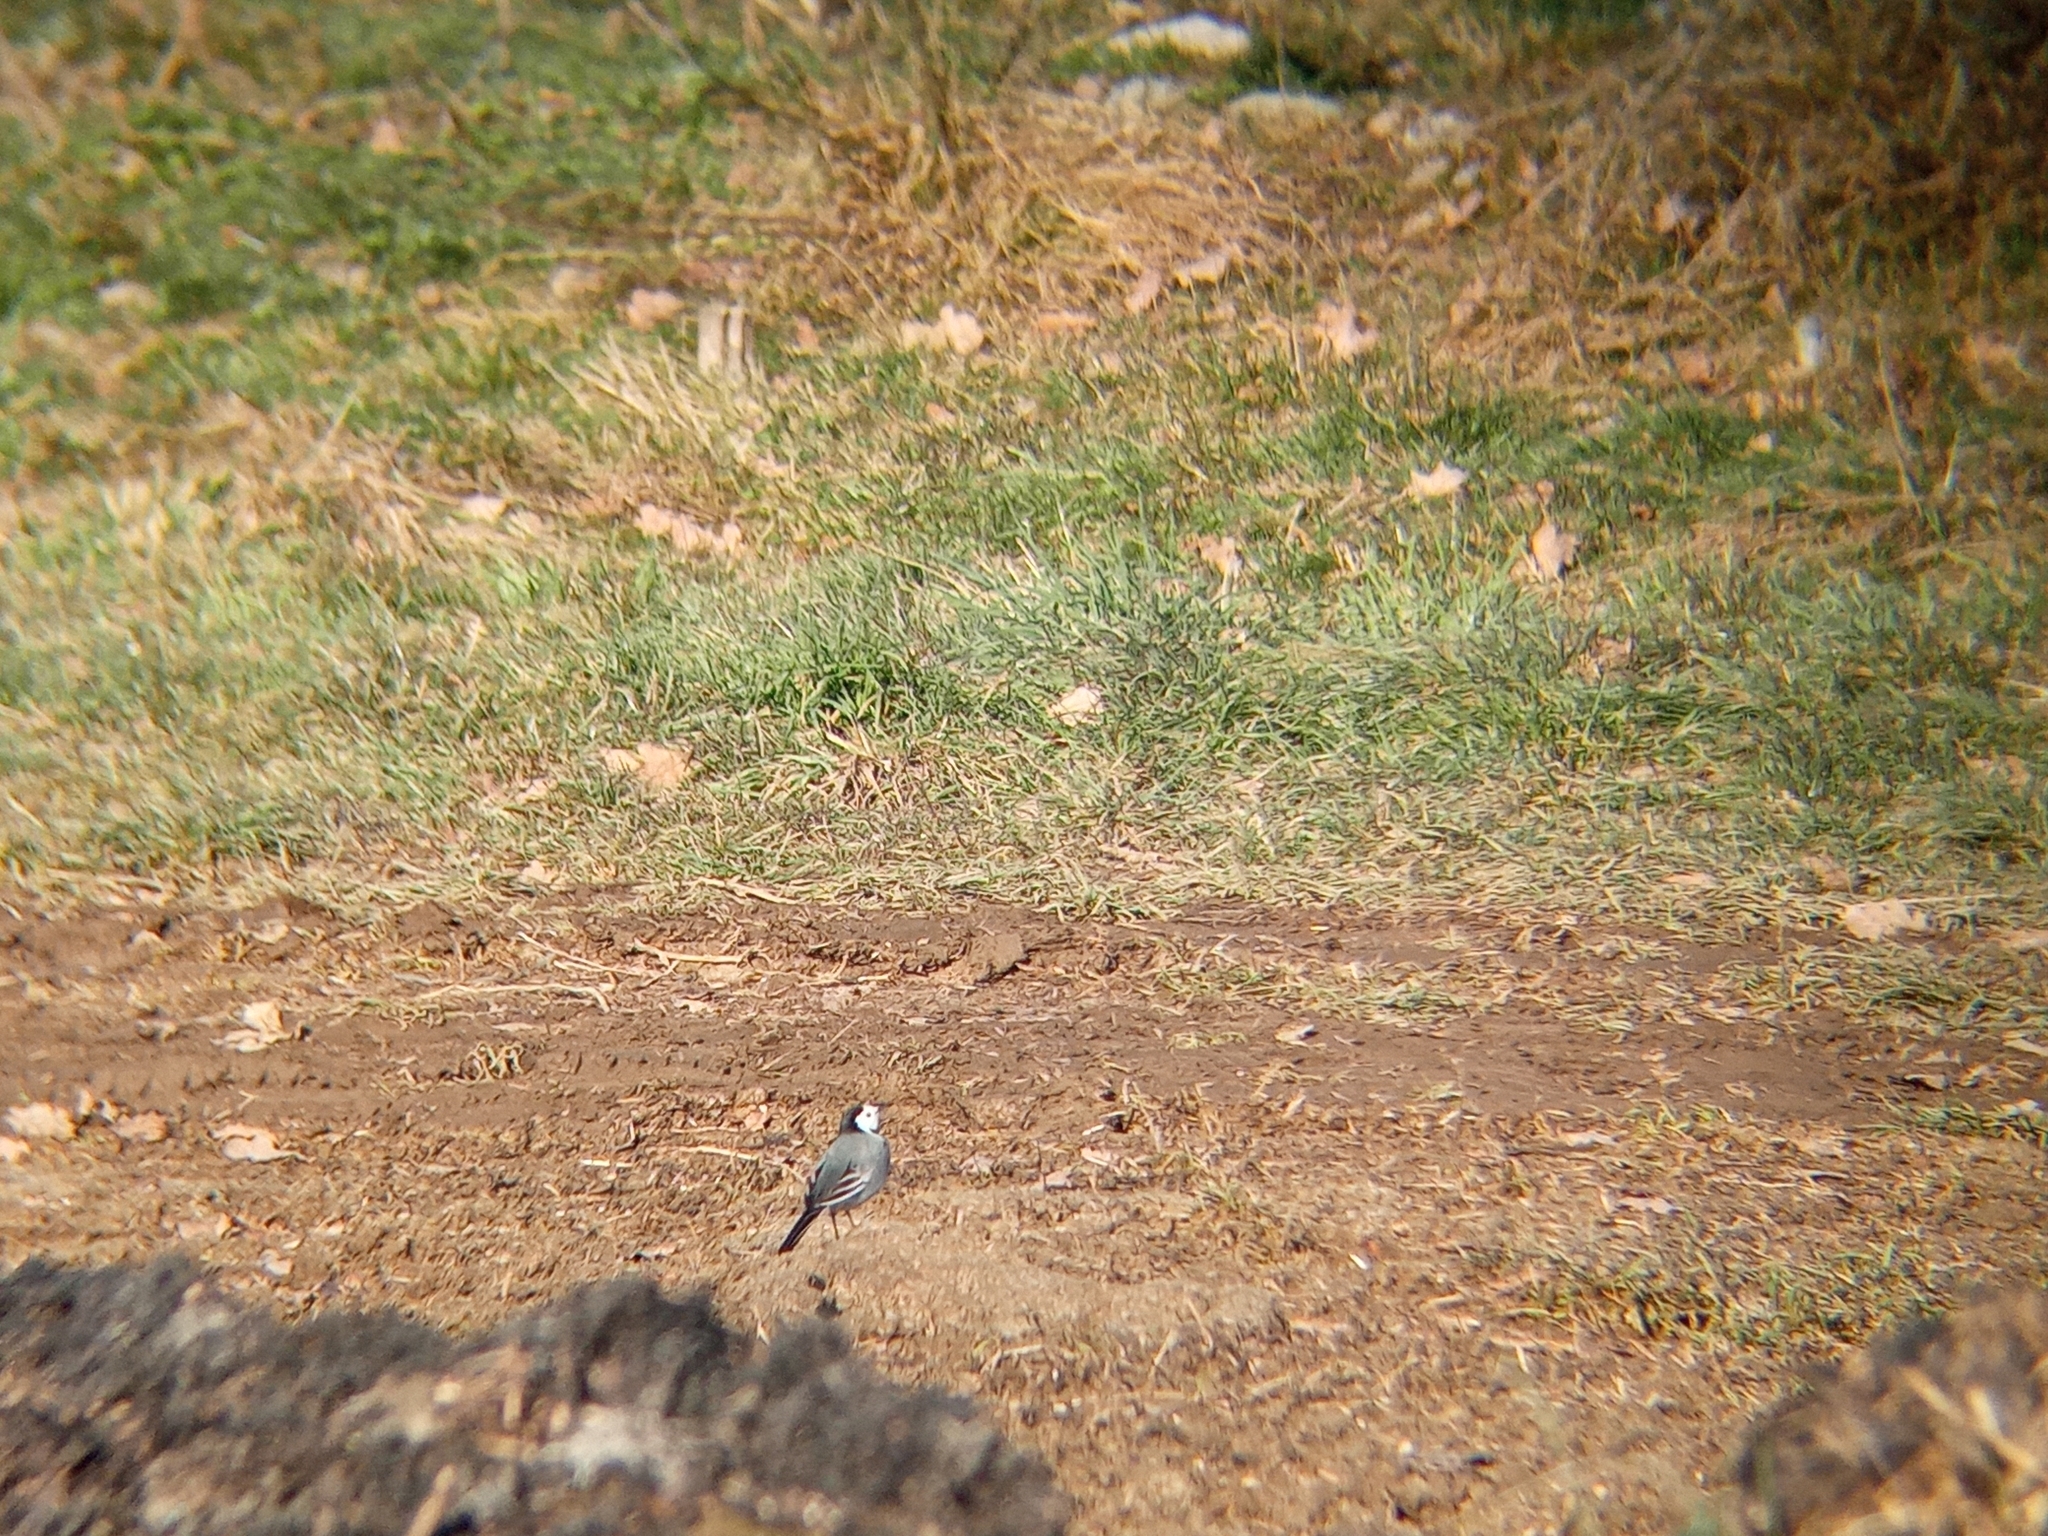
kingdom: Animalia
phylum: Chordata
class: Aves
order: Passeriformes
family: Motacillidae
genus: Motacilla
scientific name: Motacilla alba
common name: White wagtail
